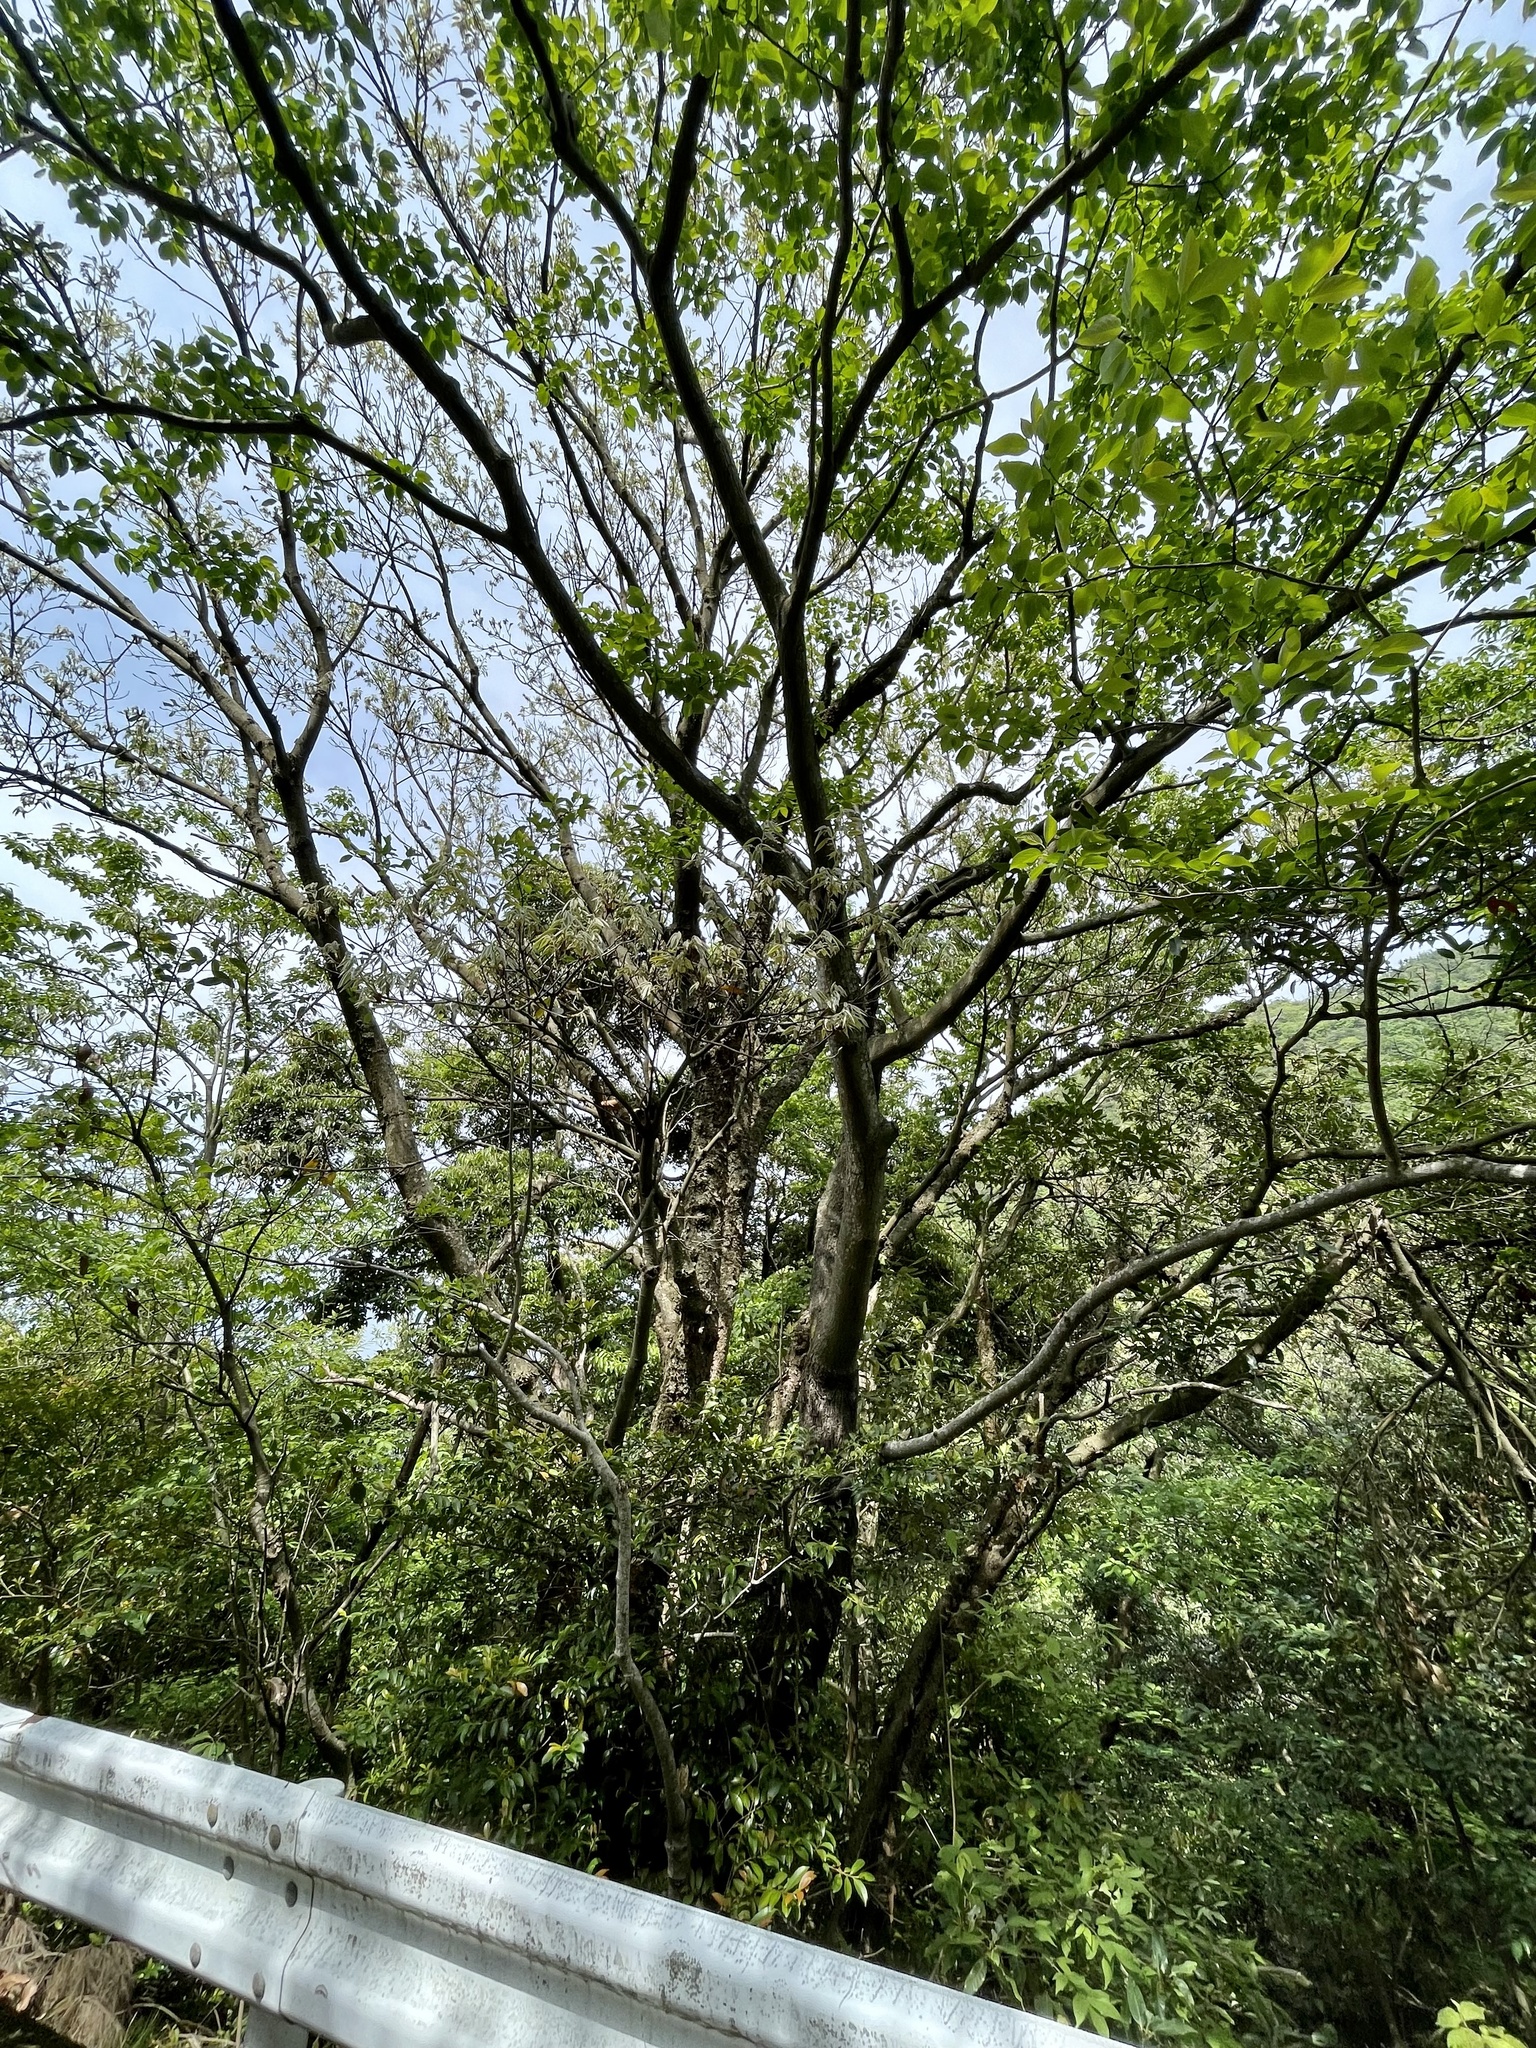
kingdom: Plantae
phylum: Tracheophyta
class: Magnoliopsida
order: Fagales
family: Fagaceae
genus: Quercus
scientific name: Quercus acuta
